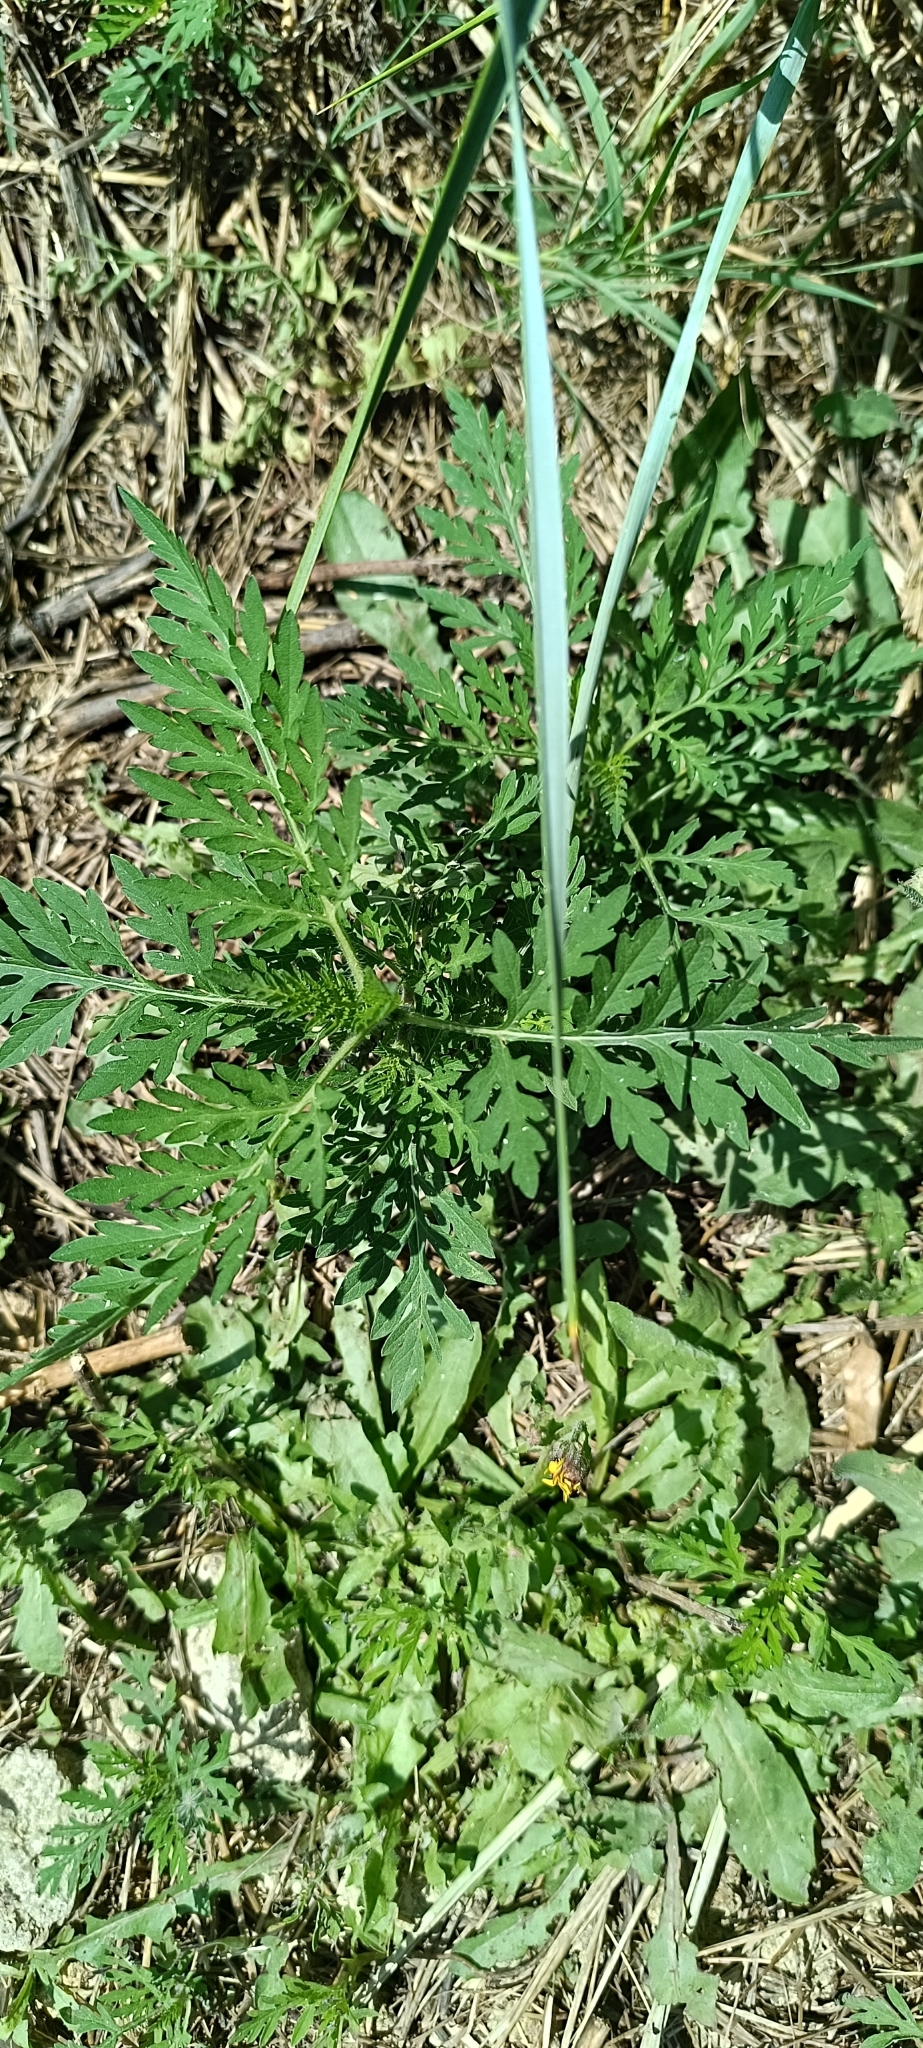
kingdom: Plantae
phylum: Tracheophyta
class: Magnoliopsida
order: Asterales
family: Asteraceae
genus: Ambrosia
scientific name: Ambrosia artemisiifolia
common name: Annual ragweed
